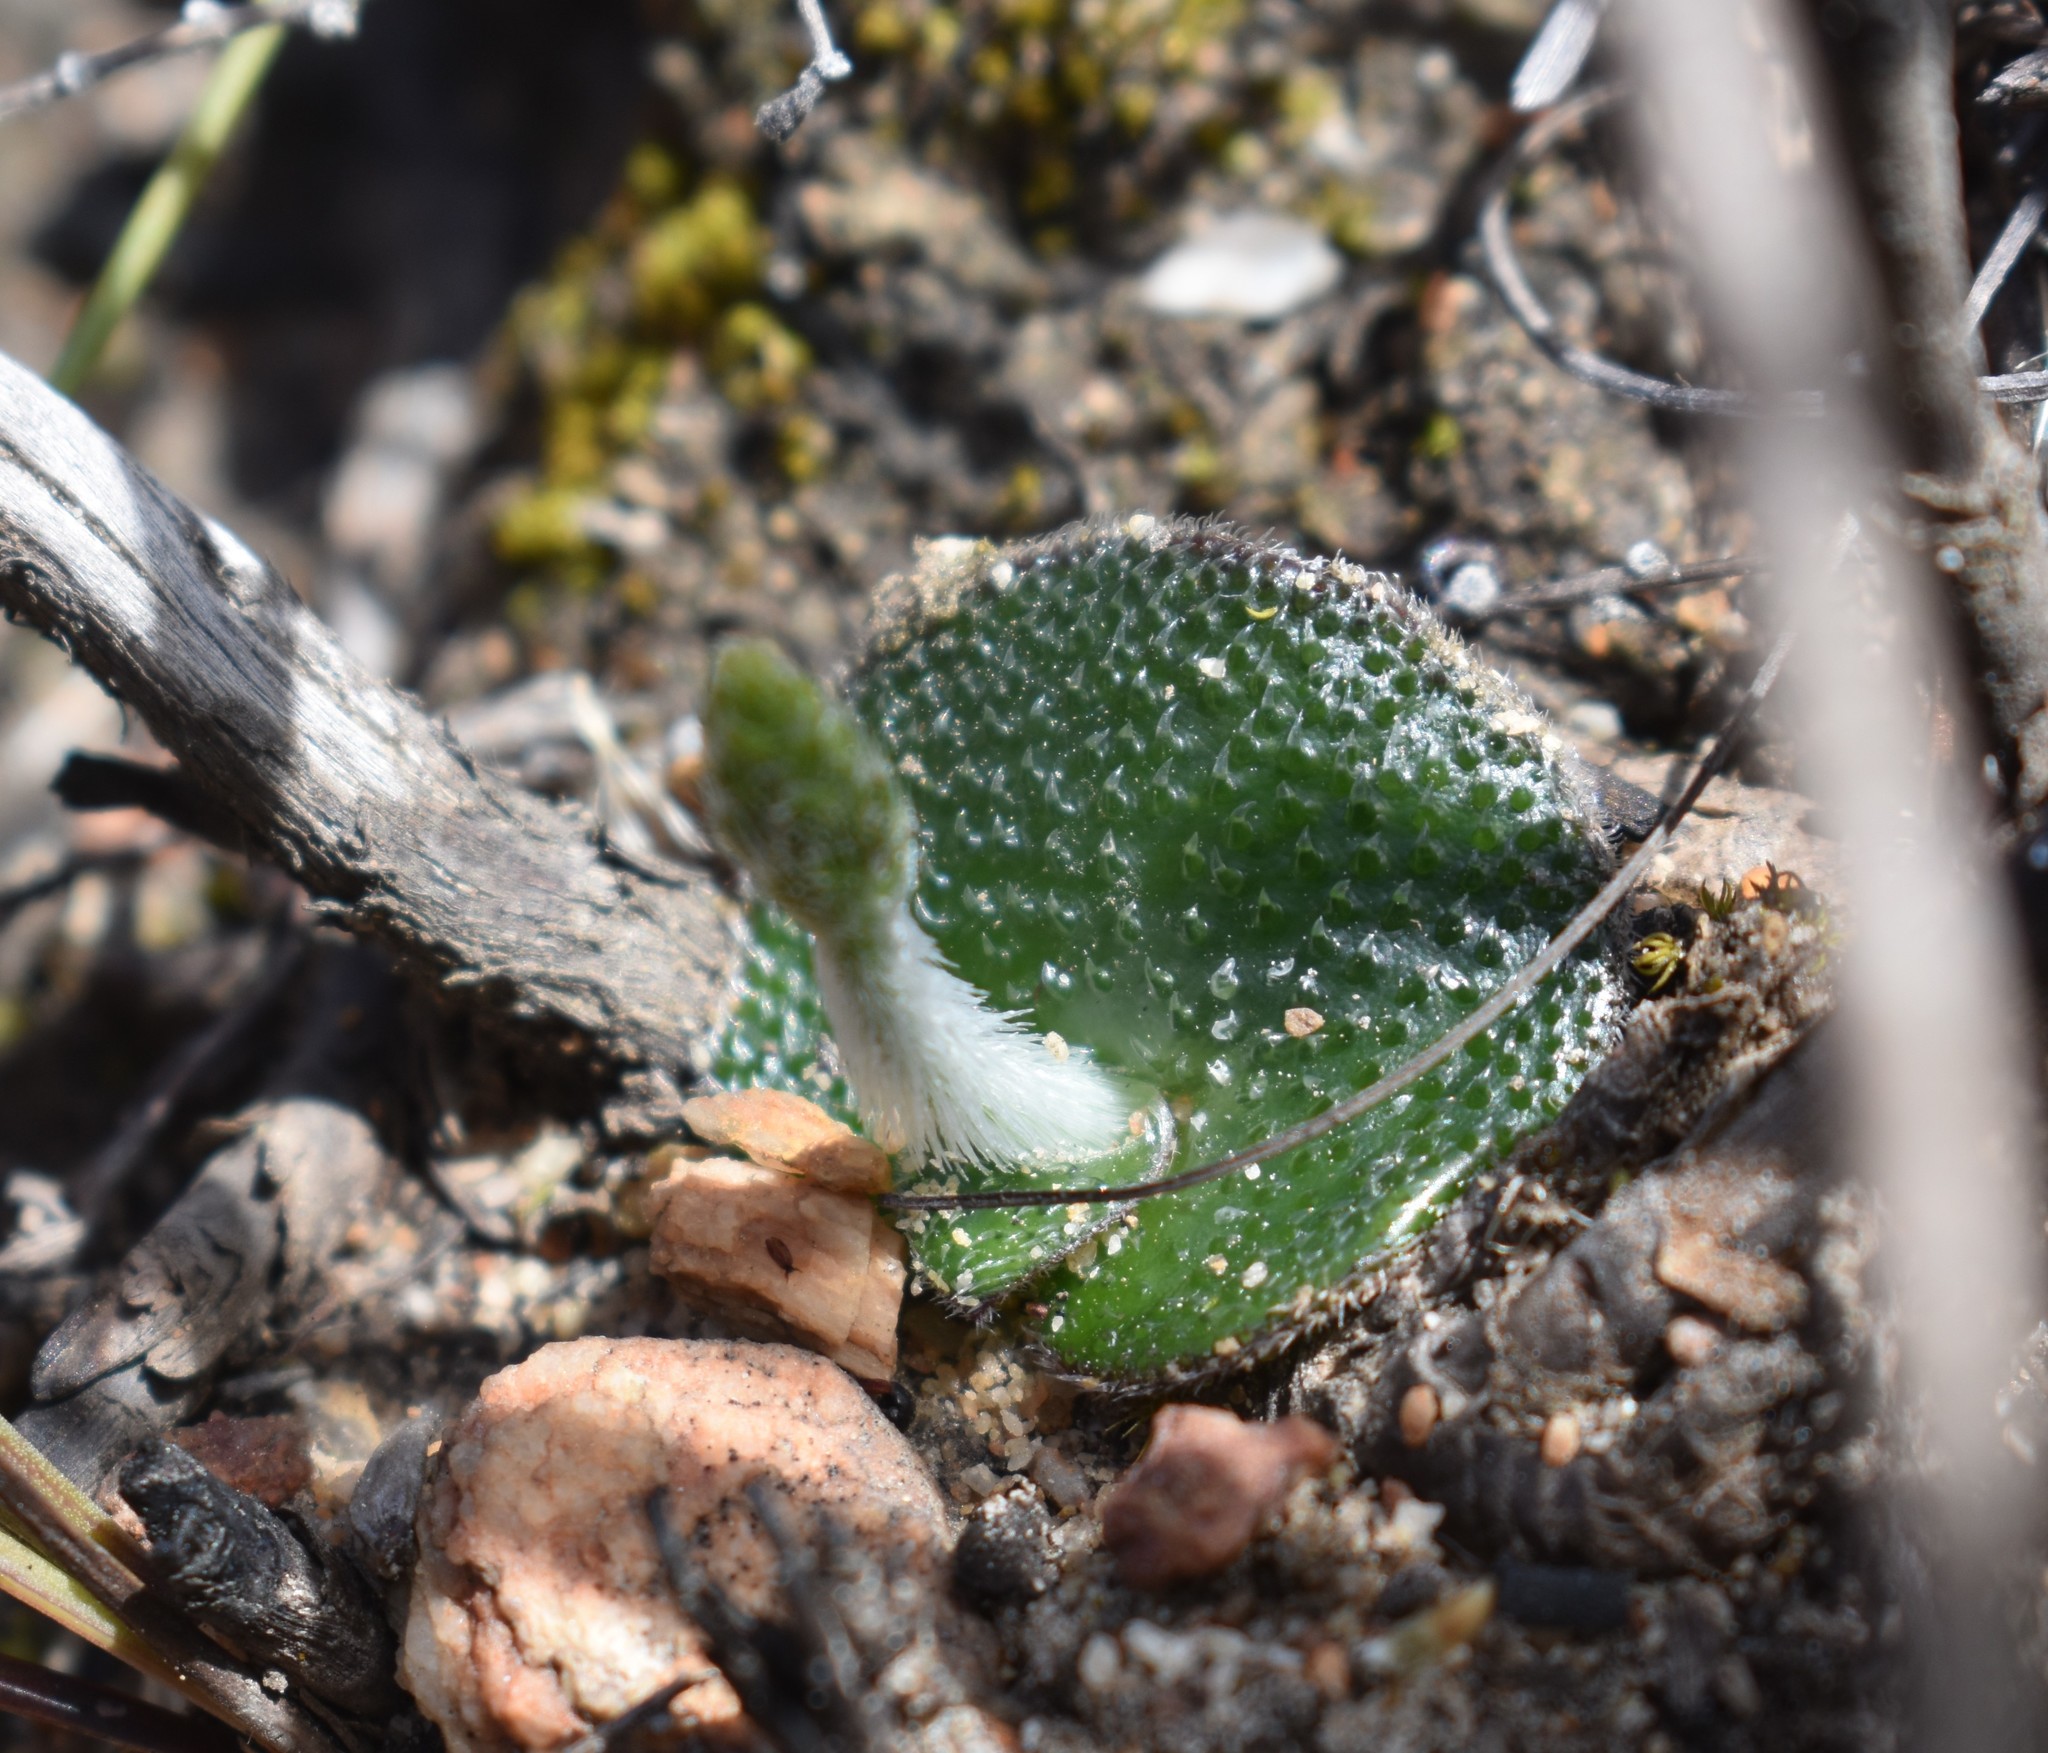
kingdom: Plantae
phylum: Tracheophyta
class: Liliopsida
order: Asparagales
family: Orchidaceae
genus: Holothrix
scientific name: Holothrix cernua
